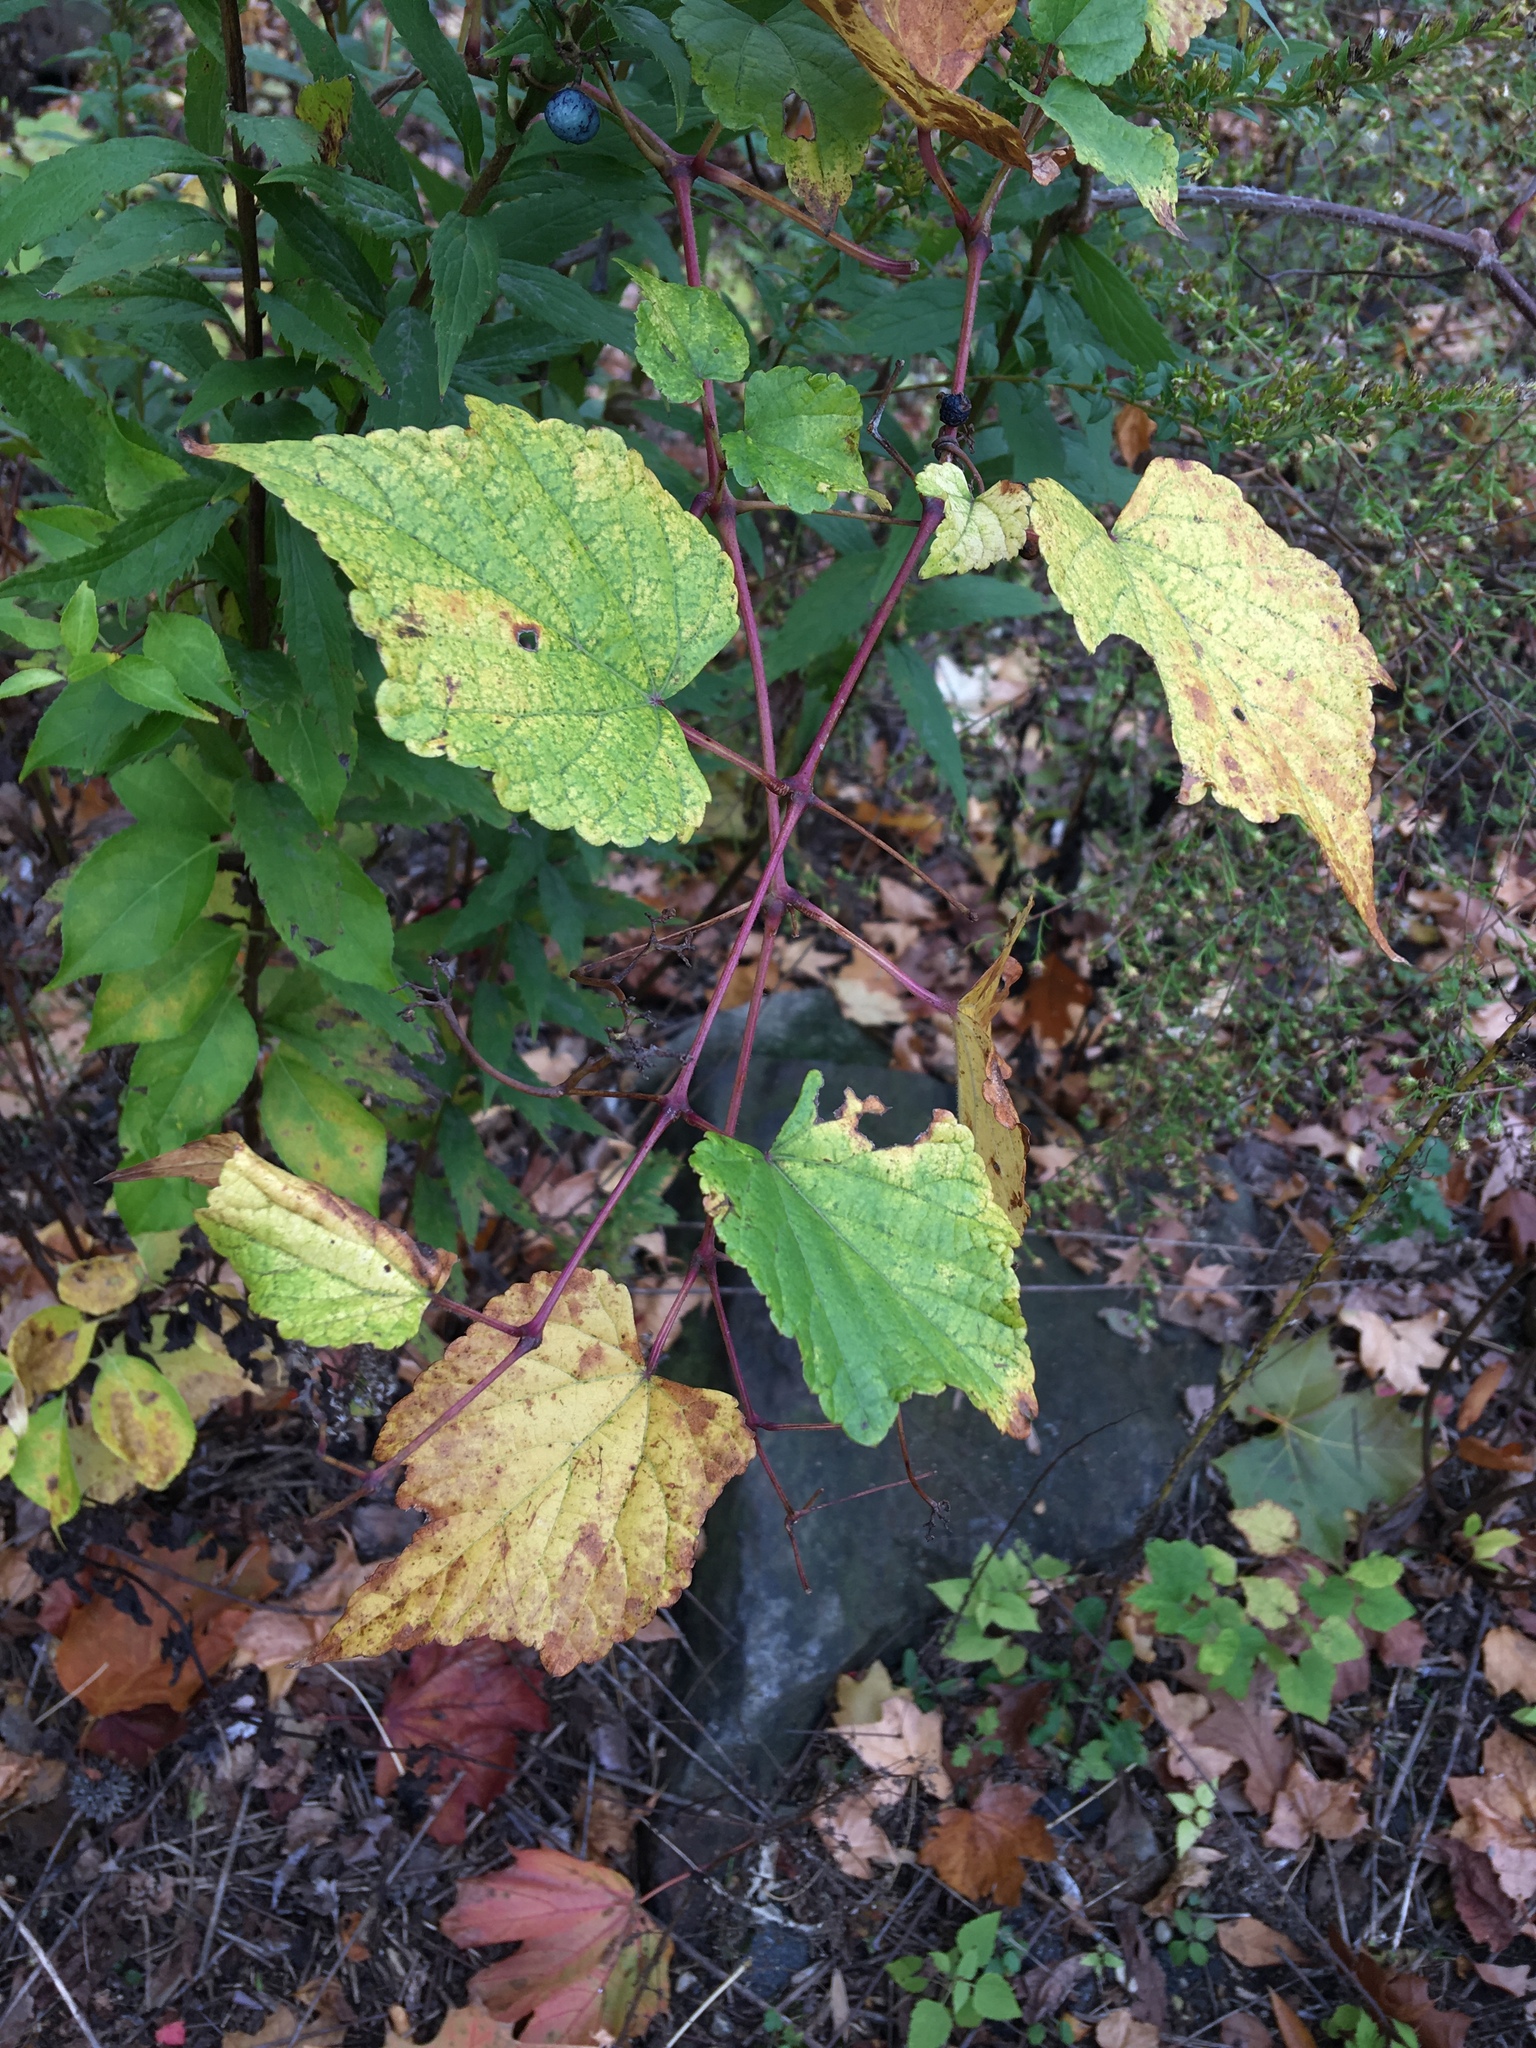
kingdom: Plantae
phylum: Tracheophyta
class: Magnoliopsida
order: Vitales
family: Vitaceae
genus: Ampelopsis
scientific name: Ampelopsis glandulosa
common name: Amur peppervine
